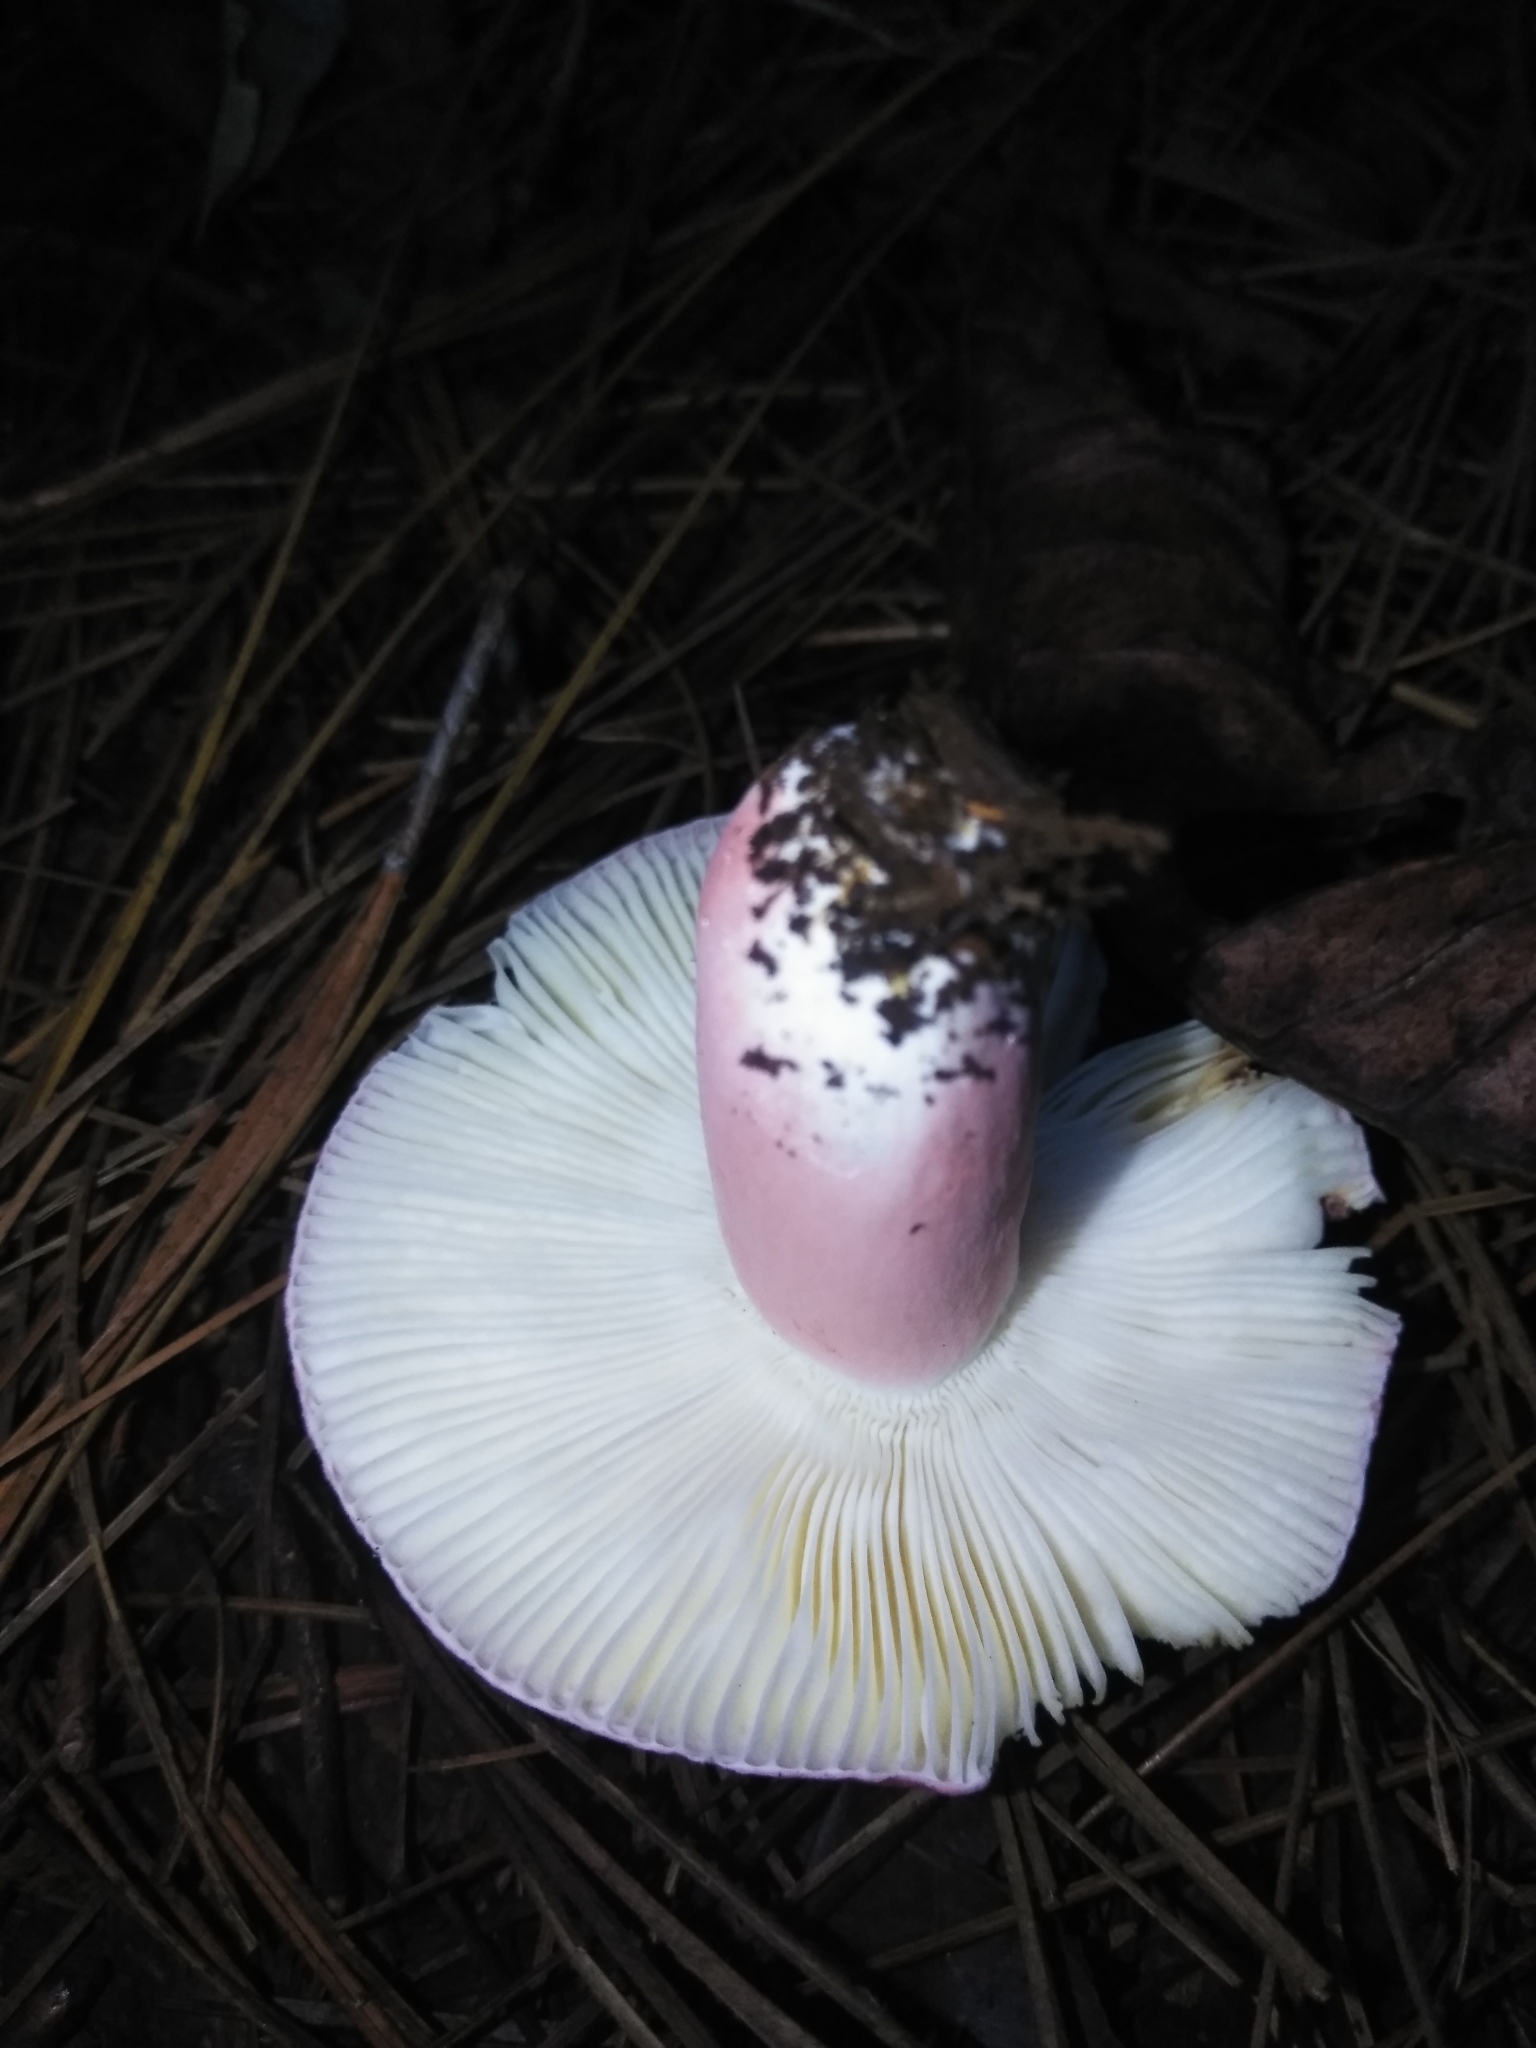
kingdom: Fungi
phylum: Basidiomycota
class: Agaricomycetes
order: Russulales
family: Russulaceae
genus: Russula
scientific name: Russula mariae
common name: Purple-bloom russula
